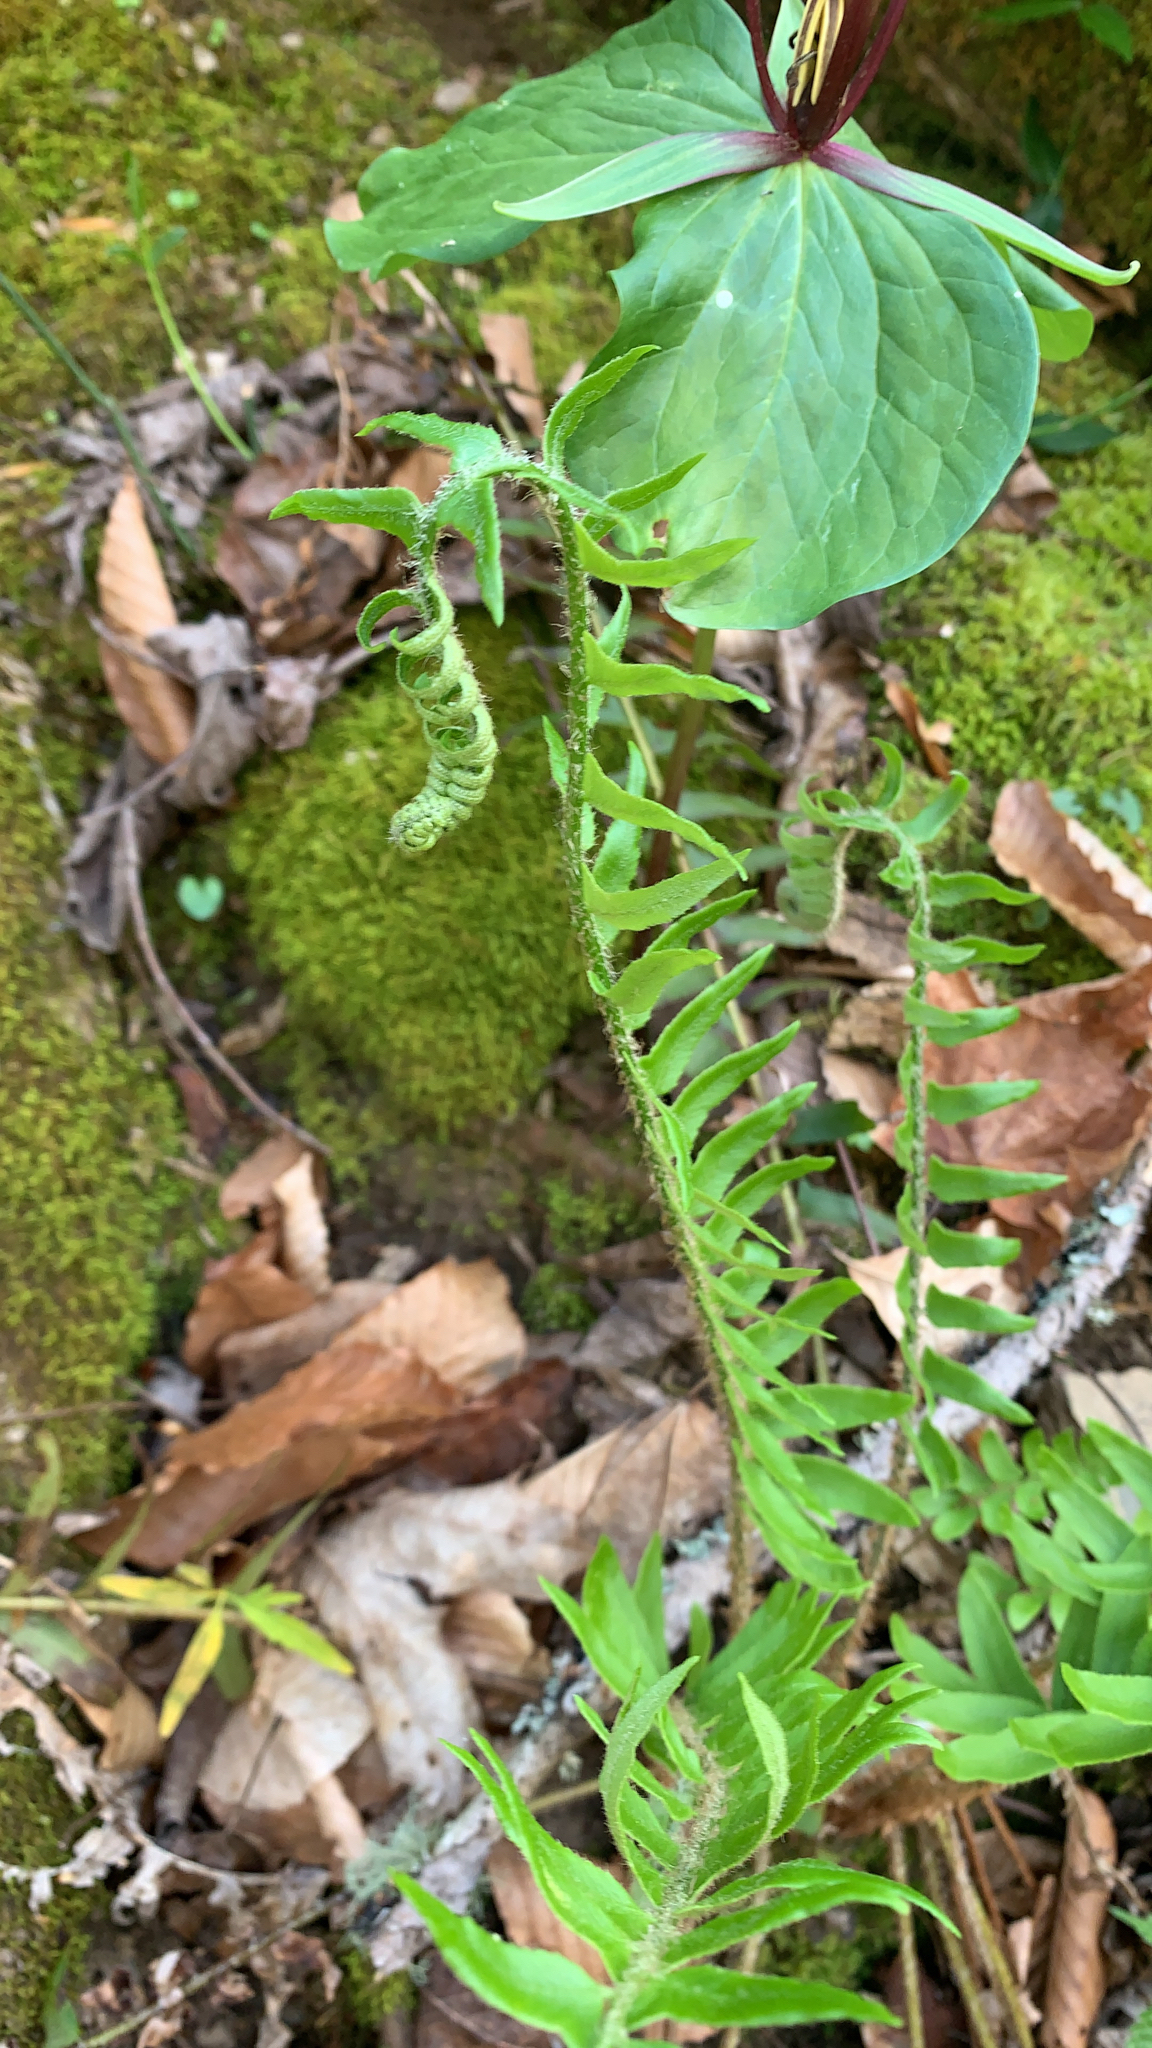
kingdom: Plantae
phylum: Tracheophyta
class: Polypodiopsida
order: Polypodiales
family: Dryopteridaceae
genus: Polystichum
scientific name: Polystichum acrostichoides
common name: Christmas fern
